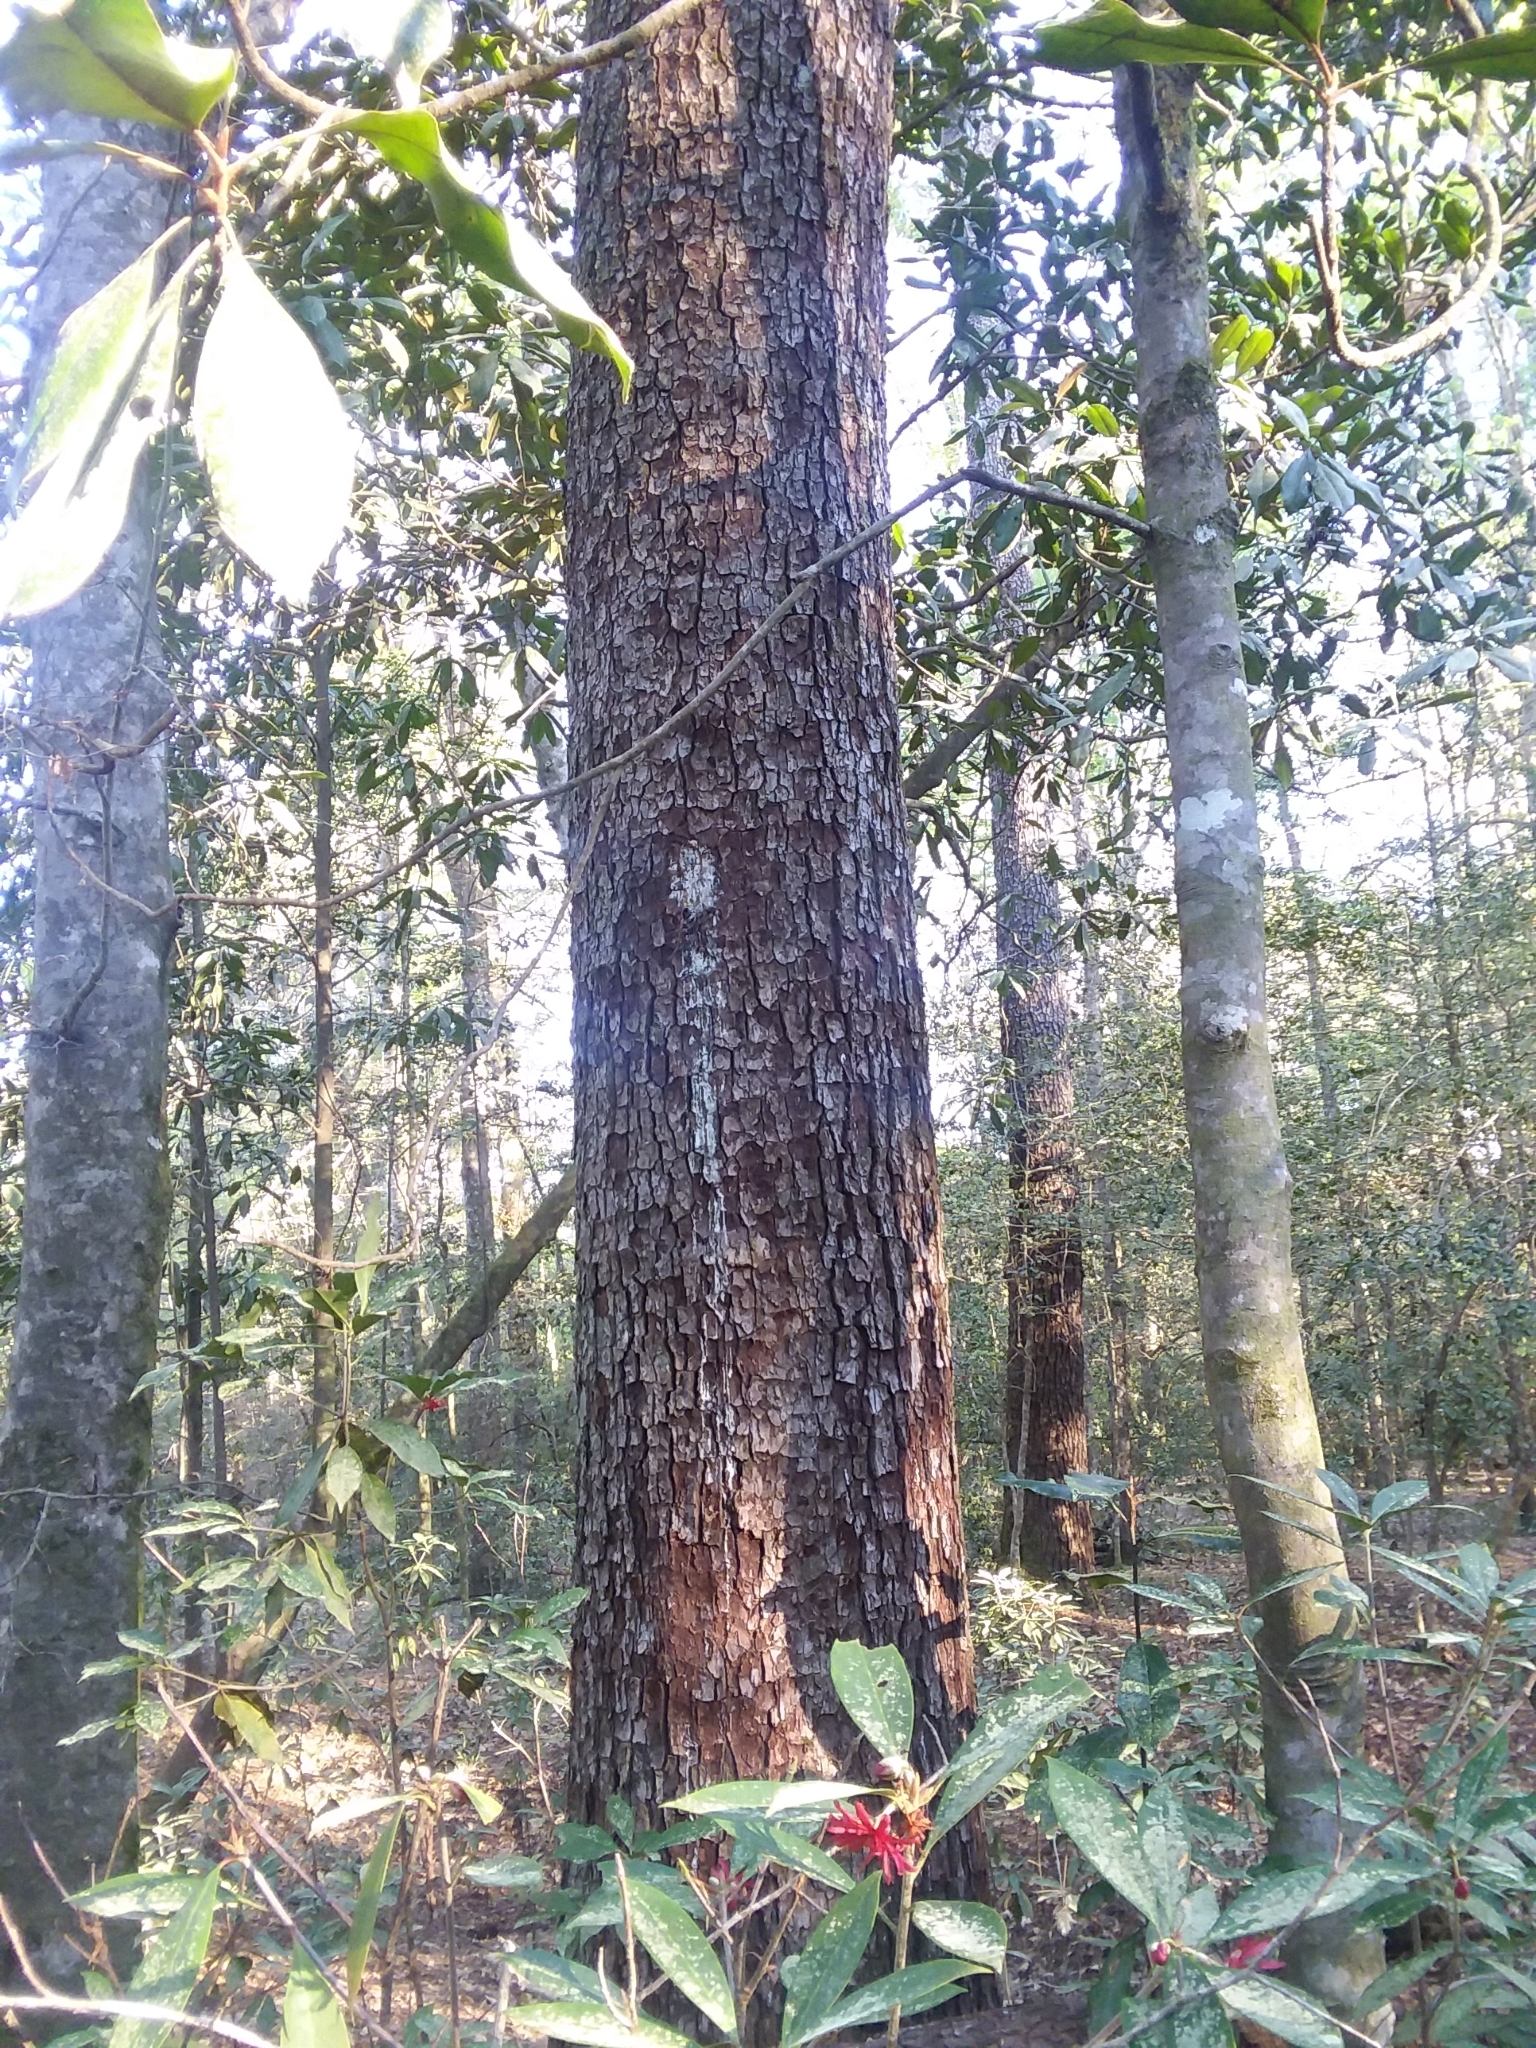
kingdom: Plantae
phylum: Tracheophyta
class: Pinopsida
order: Pinales
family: Pinaceae
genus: Pinus
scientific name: Pinus glabra
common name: Spruce pine
